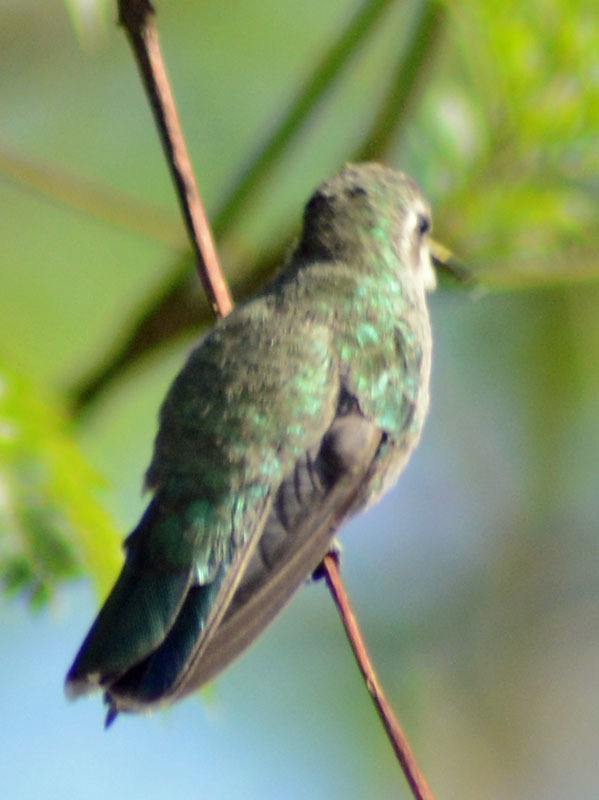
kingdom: Animalia
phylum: Chordata
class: Aves
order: Apodiformes
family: Trochilidae
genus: Cynanthus
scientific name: Cynanthus latirostris
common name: Broad-billed hummingbird
